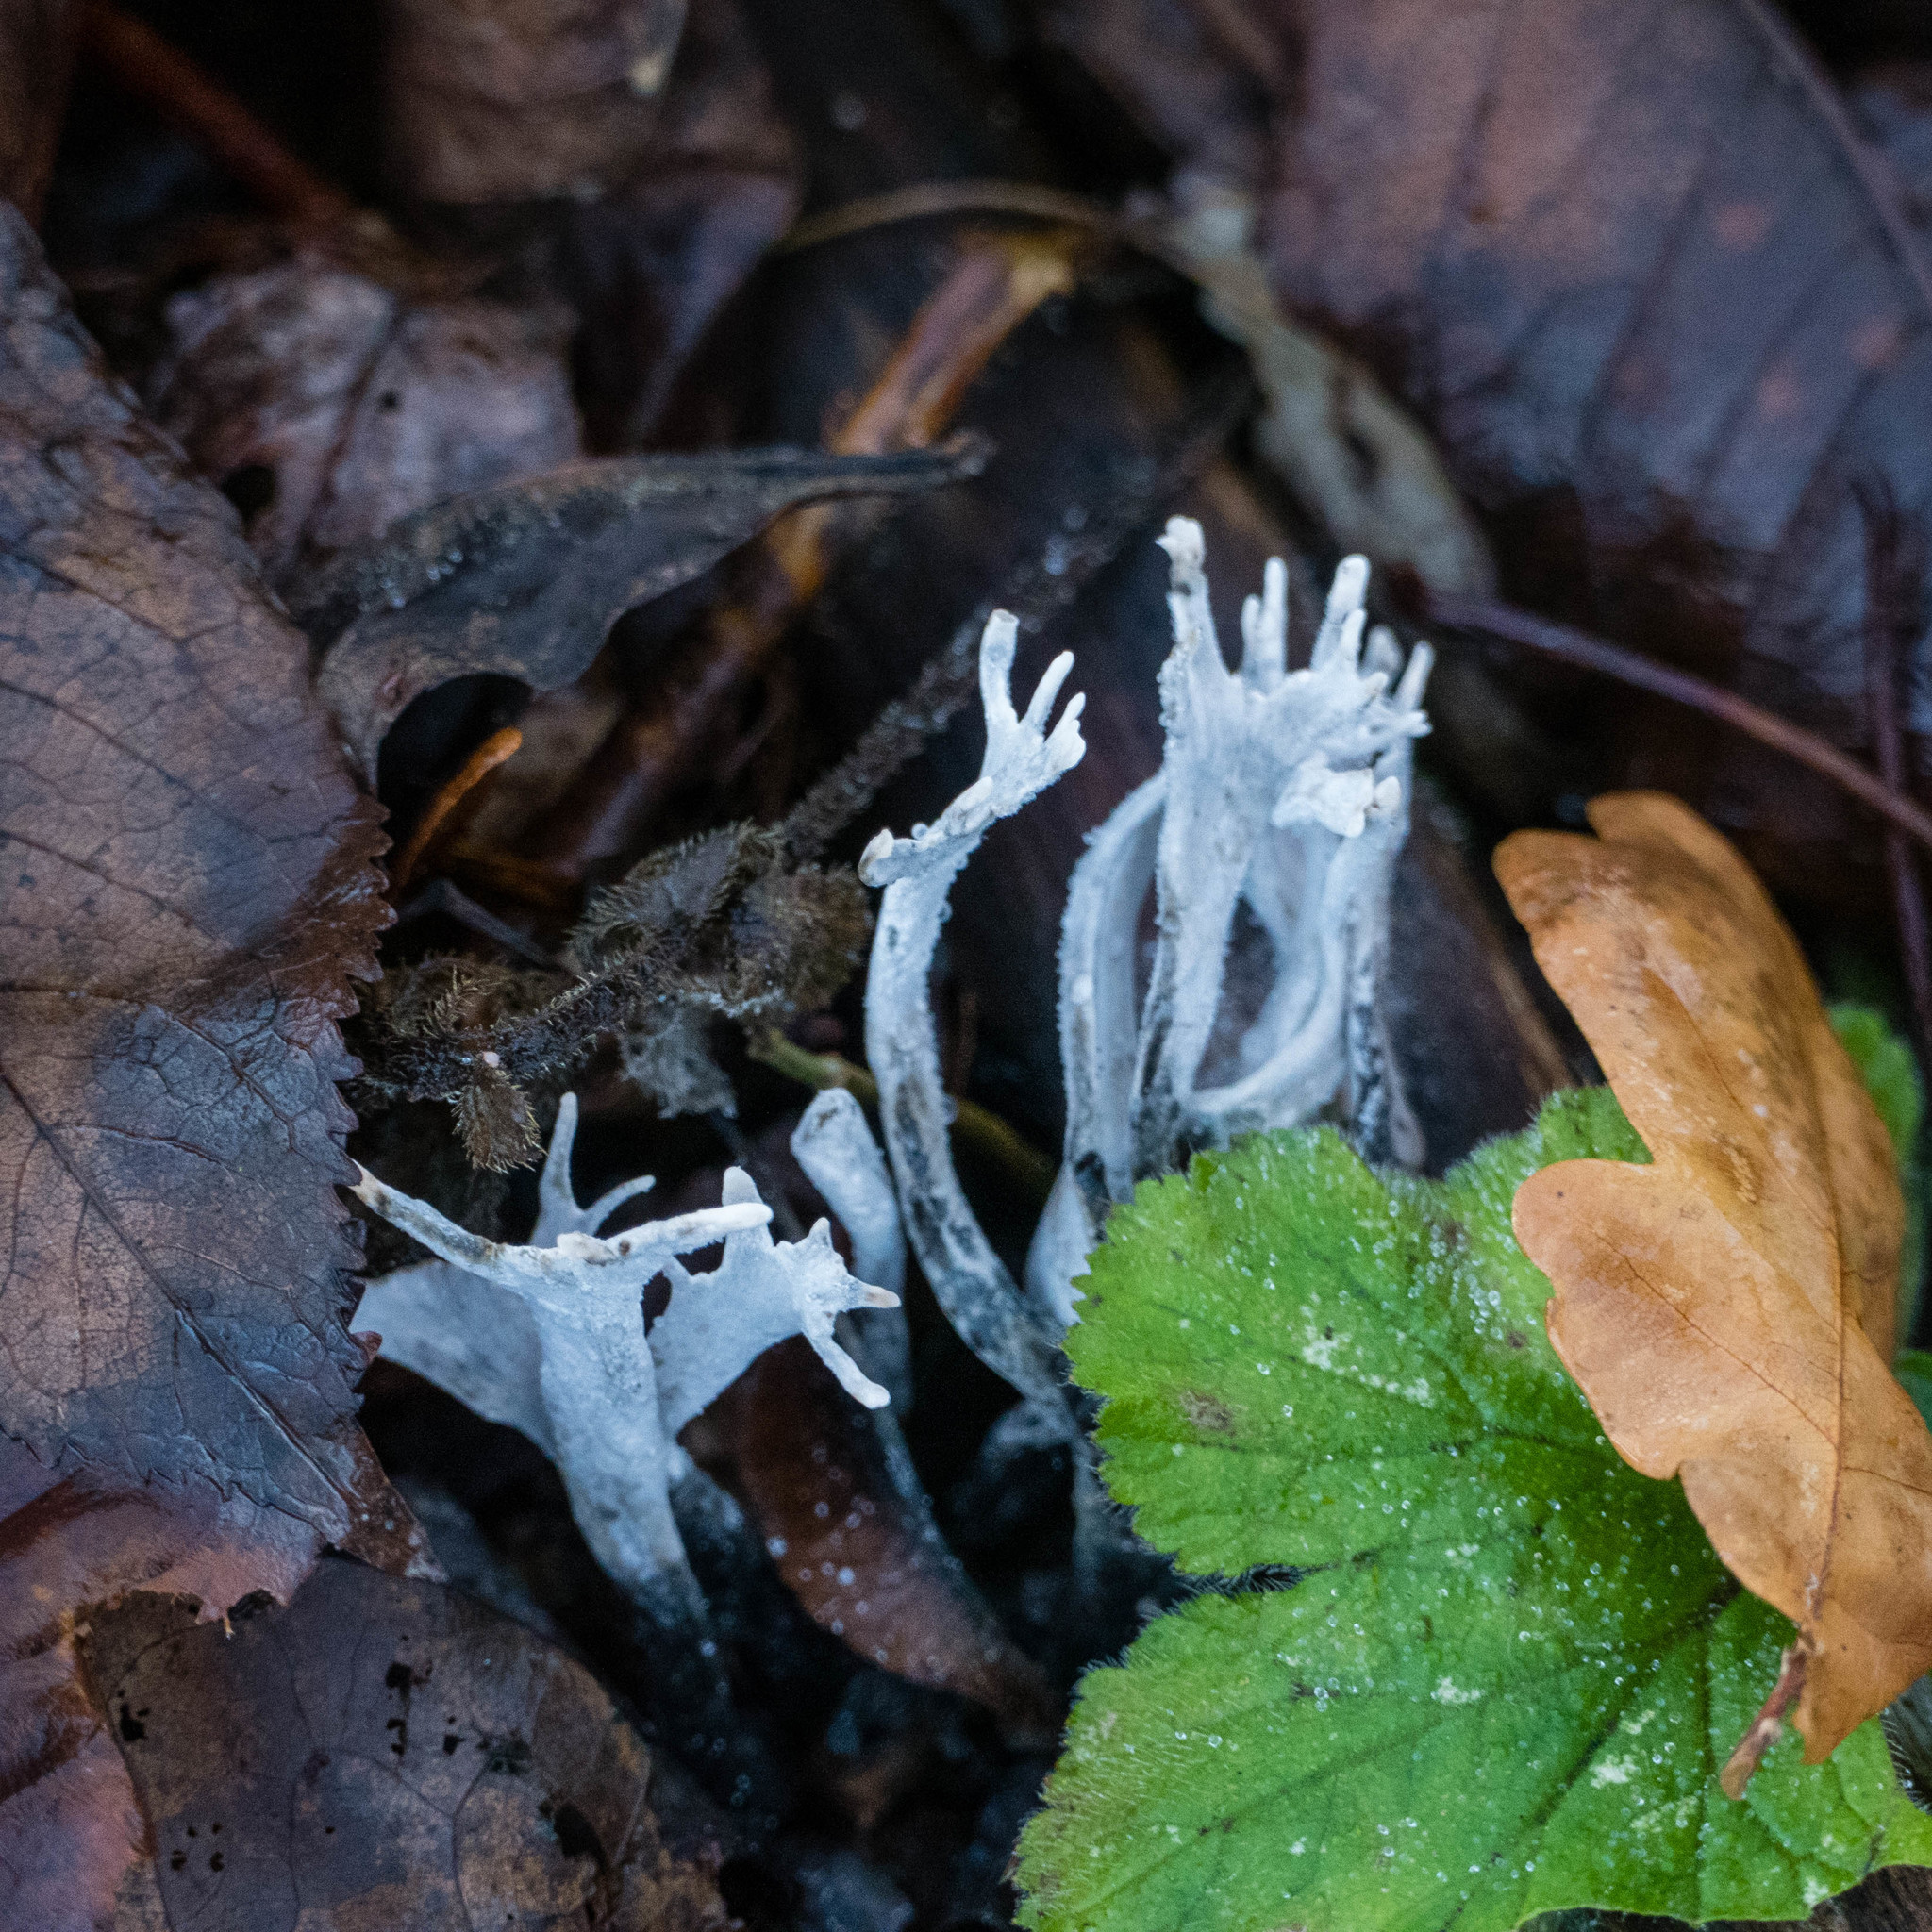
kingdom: Fungi
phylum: Ascomycota
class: Sordariomycetes
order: Xylariales
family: Xylariaceae
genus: Xylaria
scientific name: Xylaria hypoxylon
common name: Candle-snuff fungus
